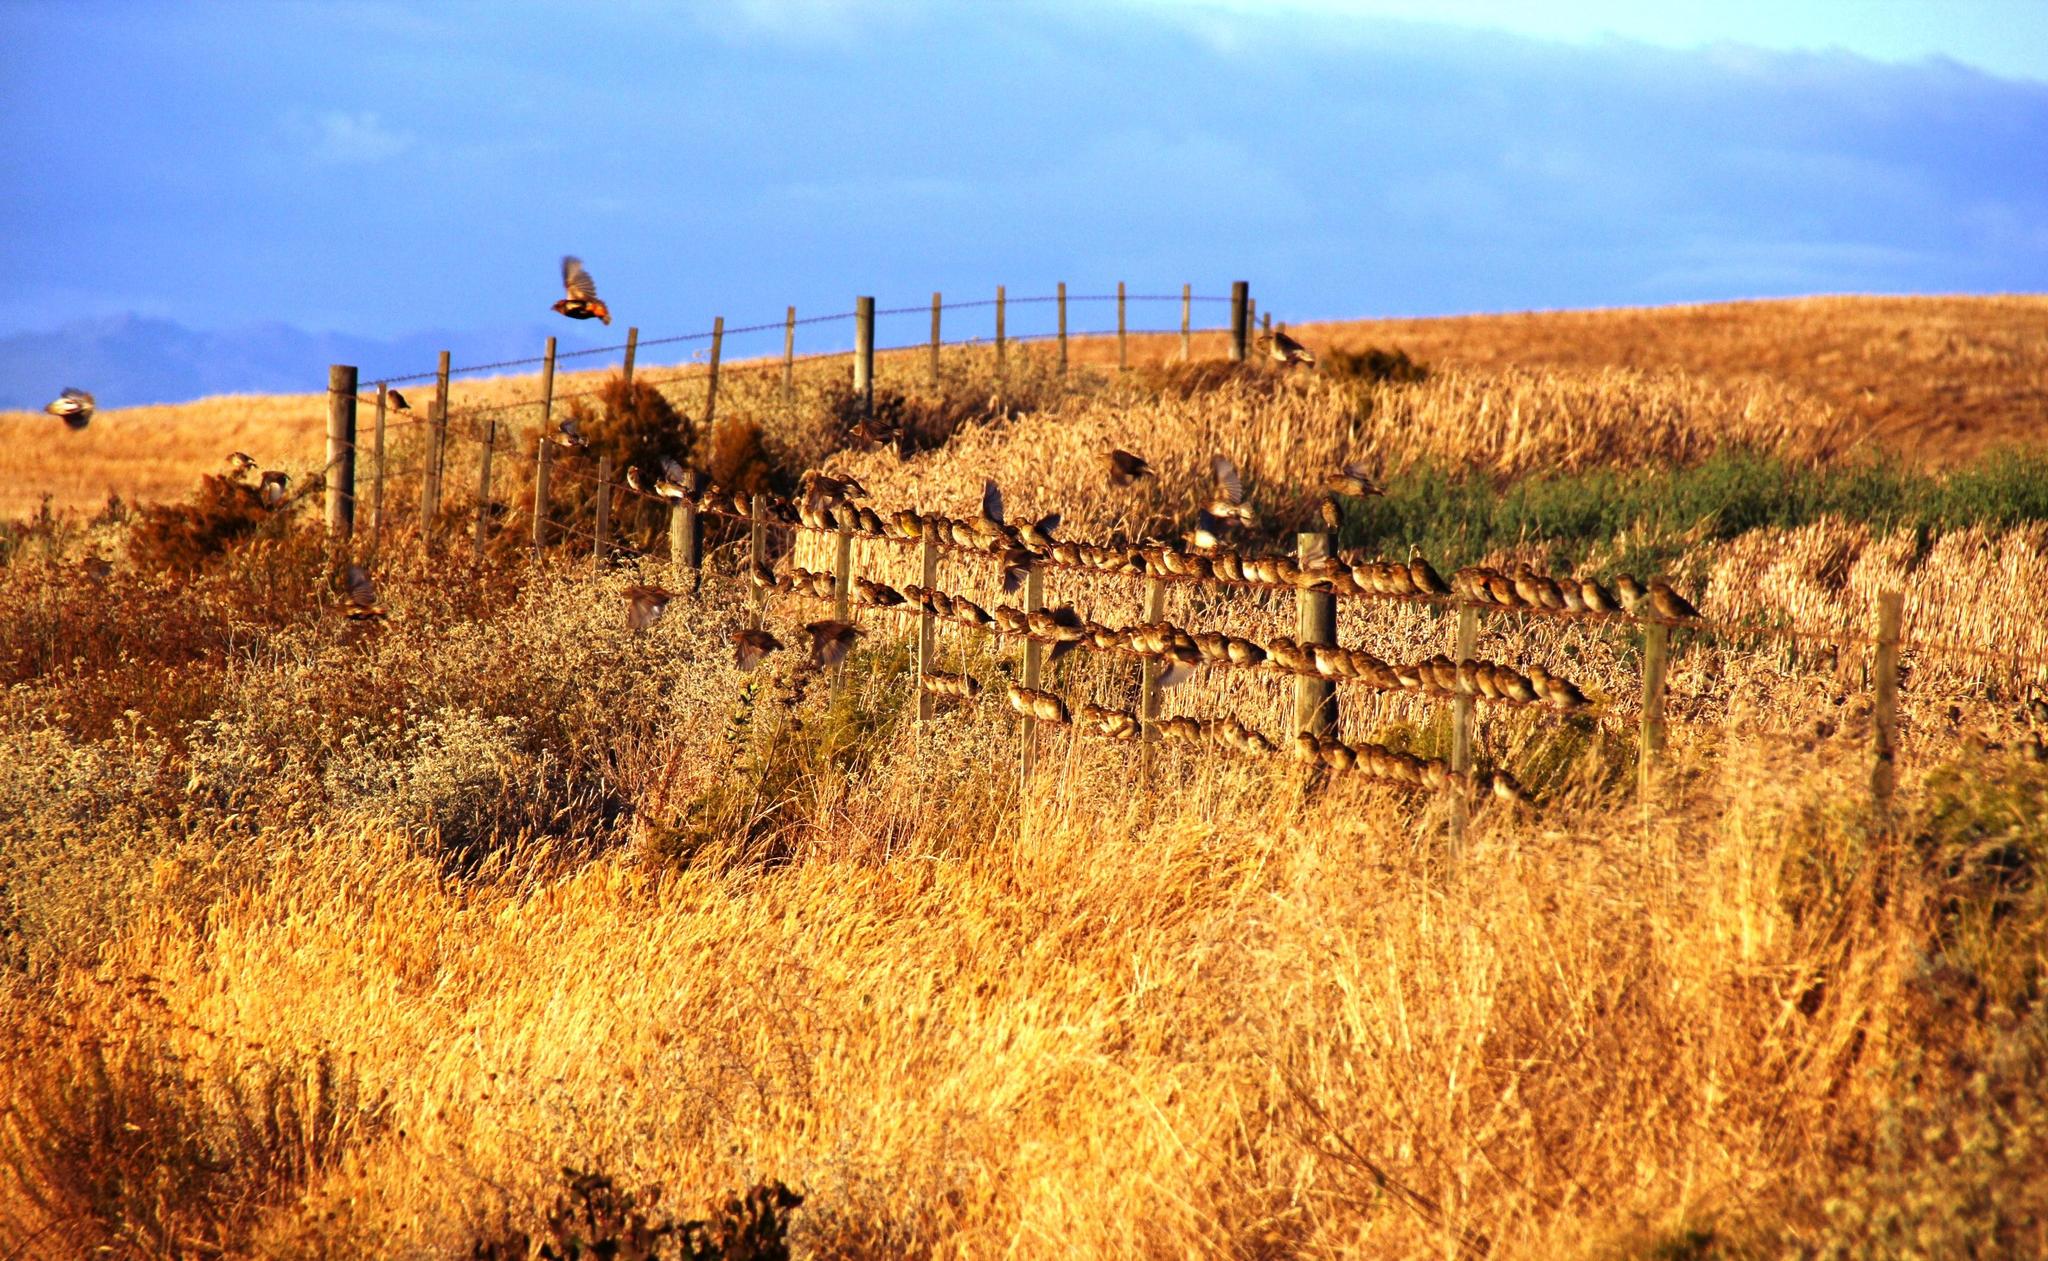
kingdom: Animalia
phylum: Chordata
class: Aves
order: Passeriformes
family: Ploceidae
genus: Euplectes
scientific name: Euplectes capensis
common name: Yellow bishop
